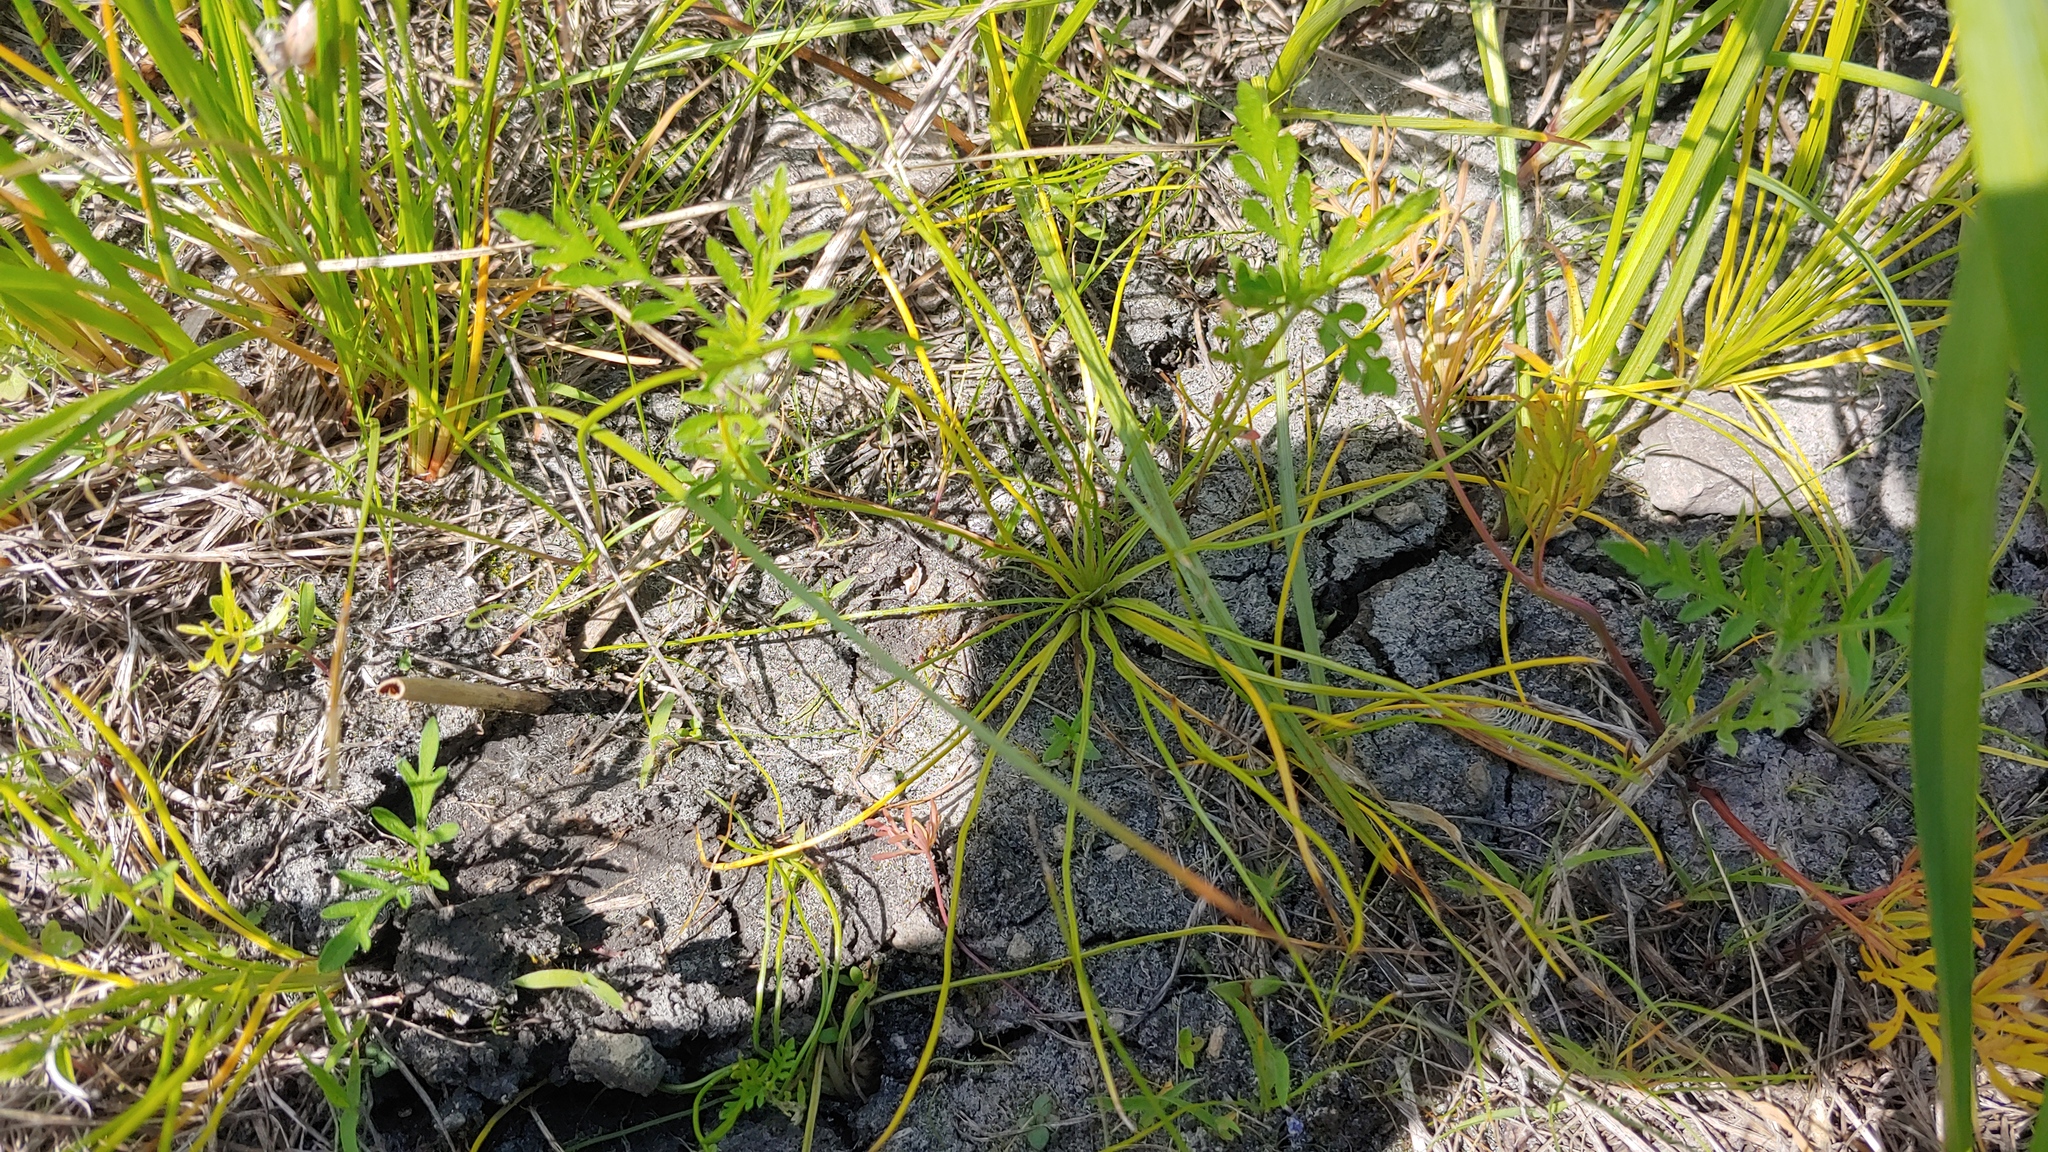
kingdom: Plantae
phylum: Tracheophyta
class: Lycopodiopsida
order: Isoetales
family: Isoetaceae
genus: Isoetes
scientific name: Isoetes butleri
